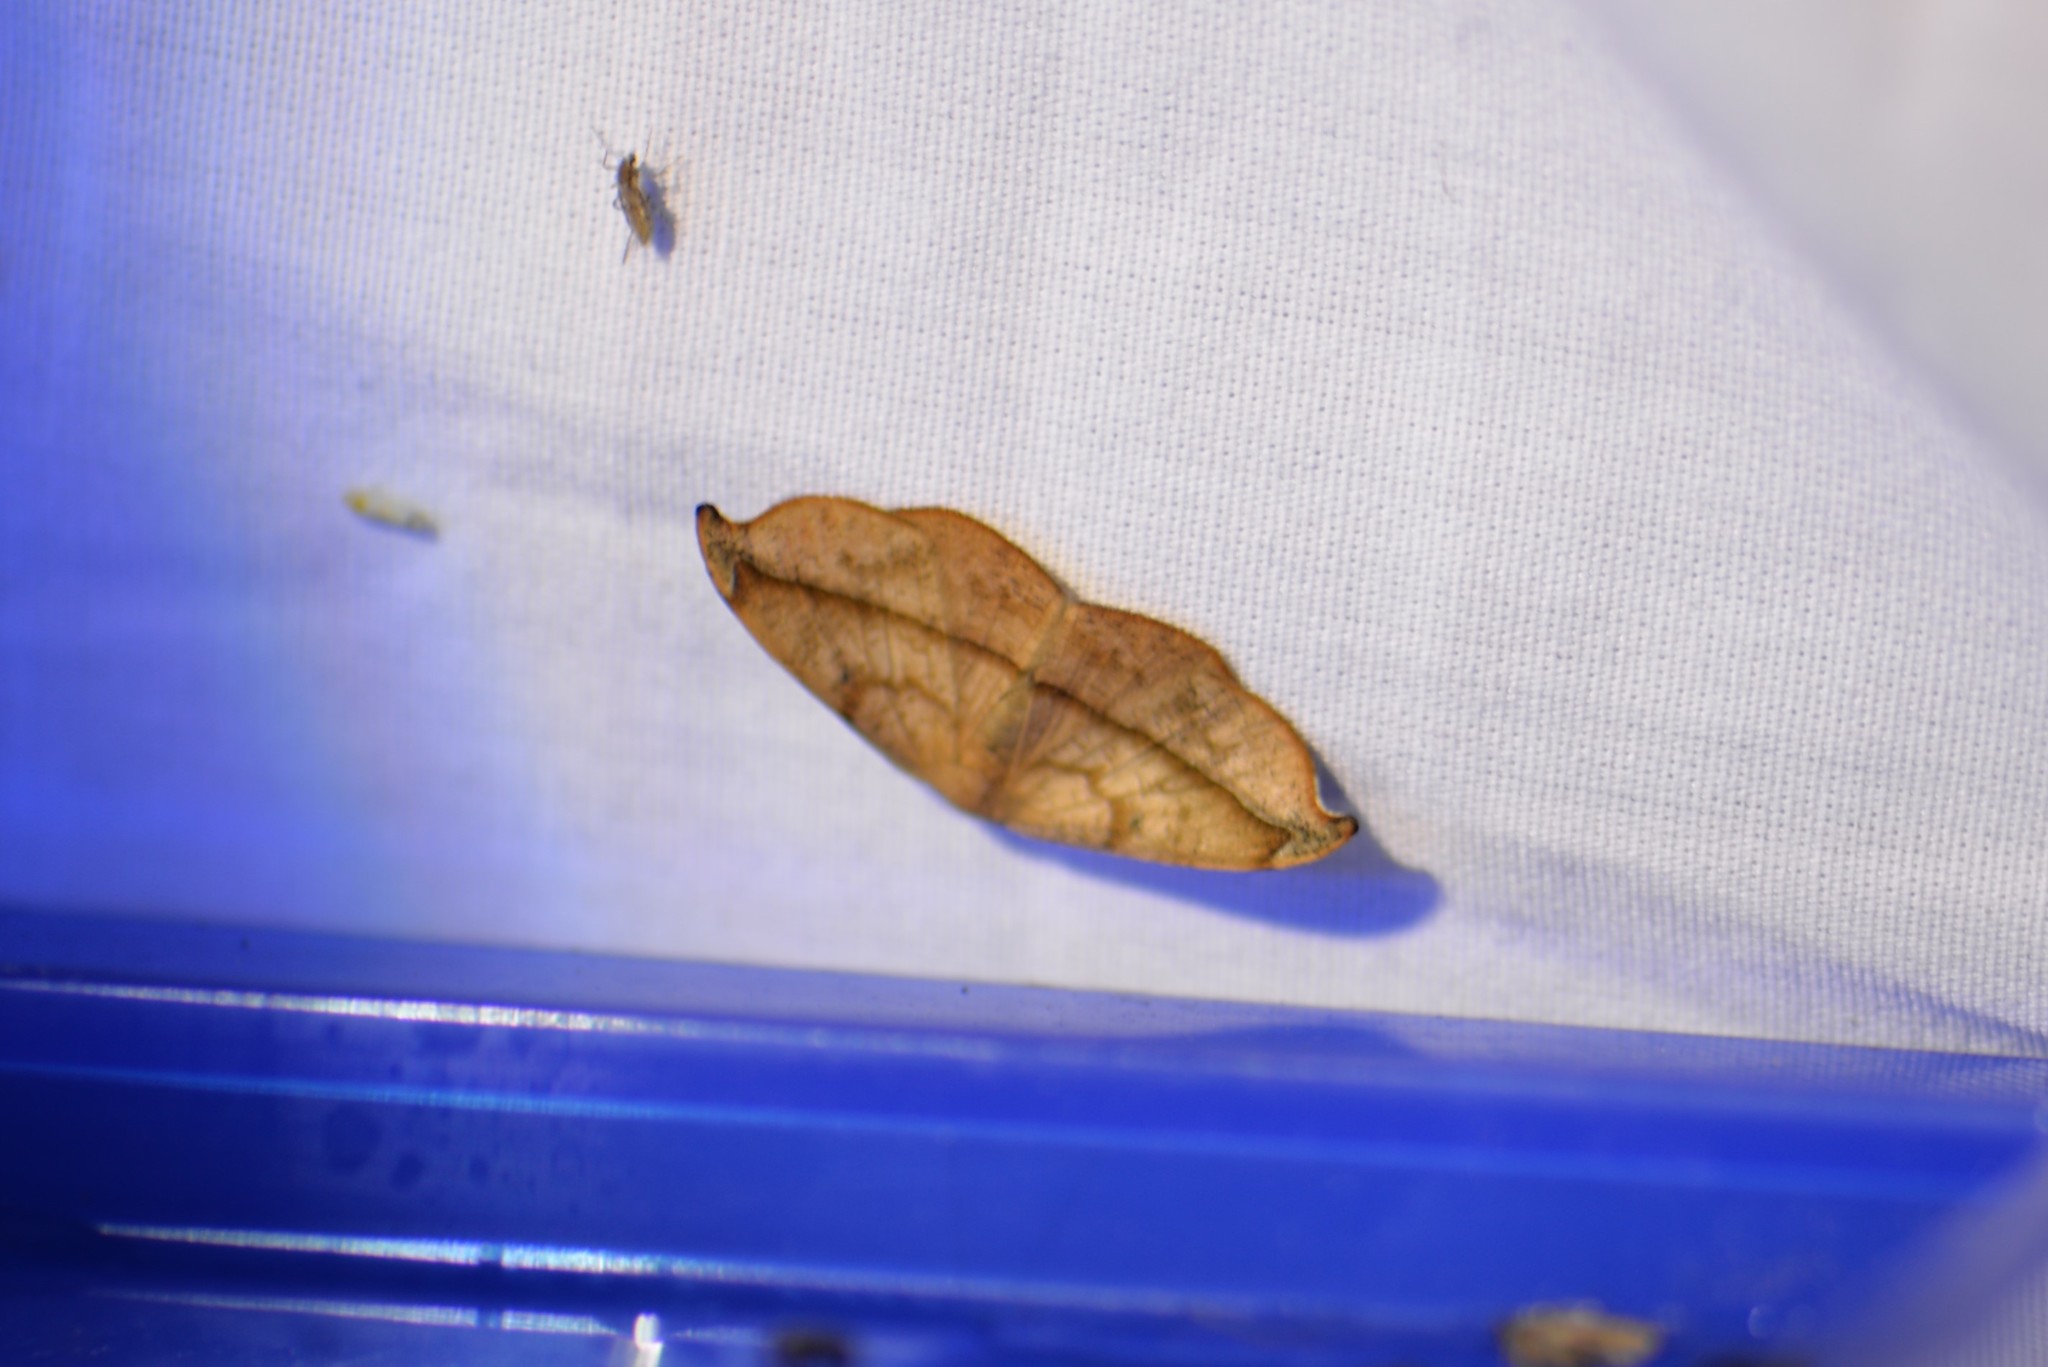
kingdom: Animalia
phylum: Arthropoda
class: Insecta
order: Lepidoptera
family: Geometridae
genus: Patalene
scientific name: Patalene olyzonaria
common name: Juniper geometer moth
